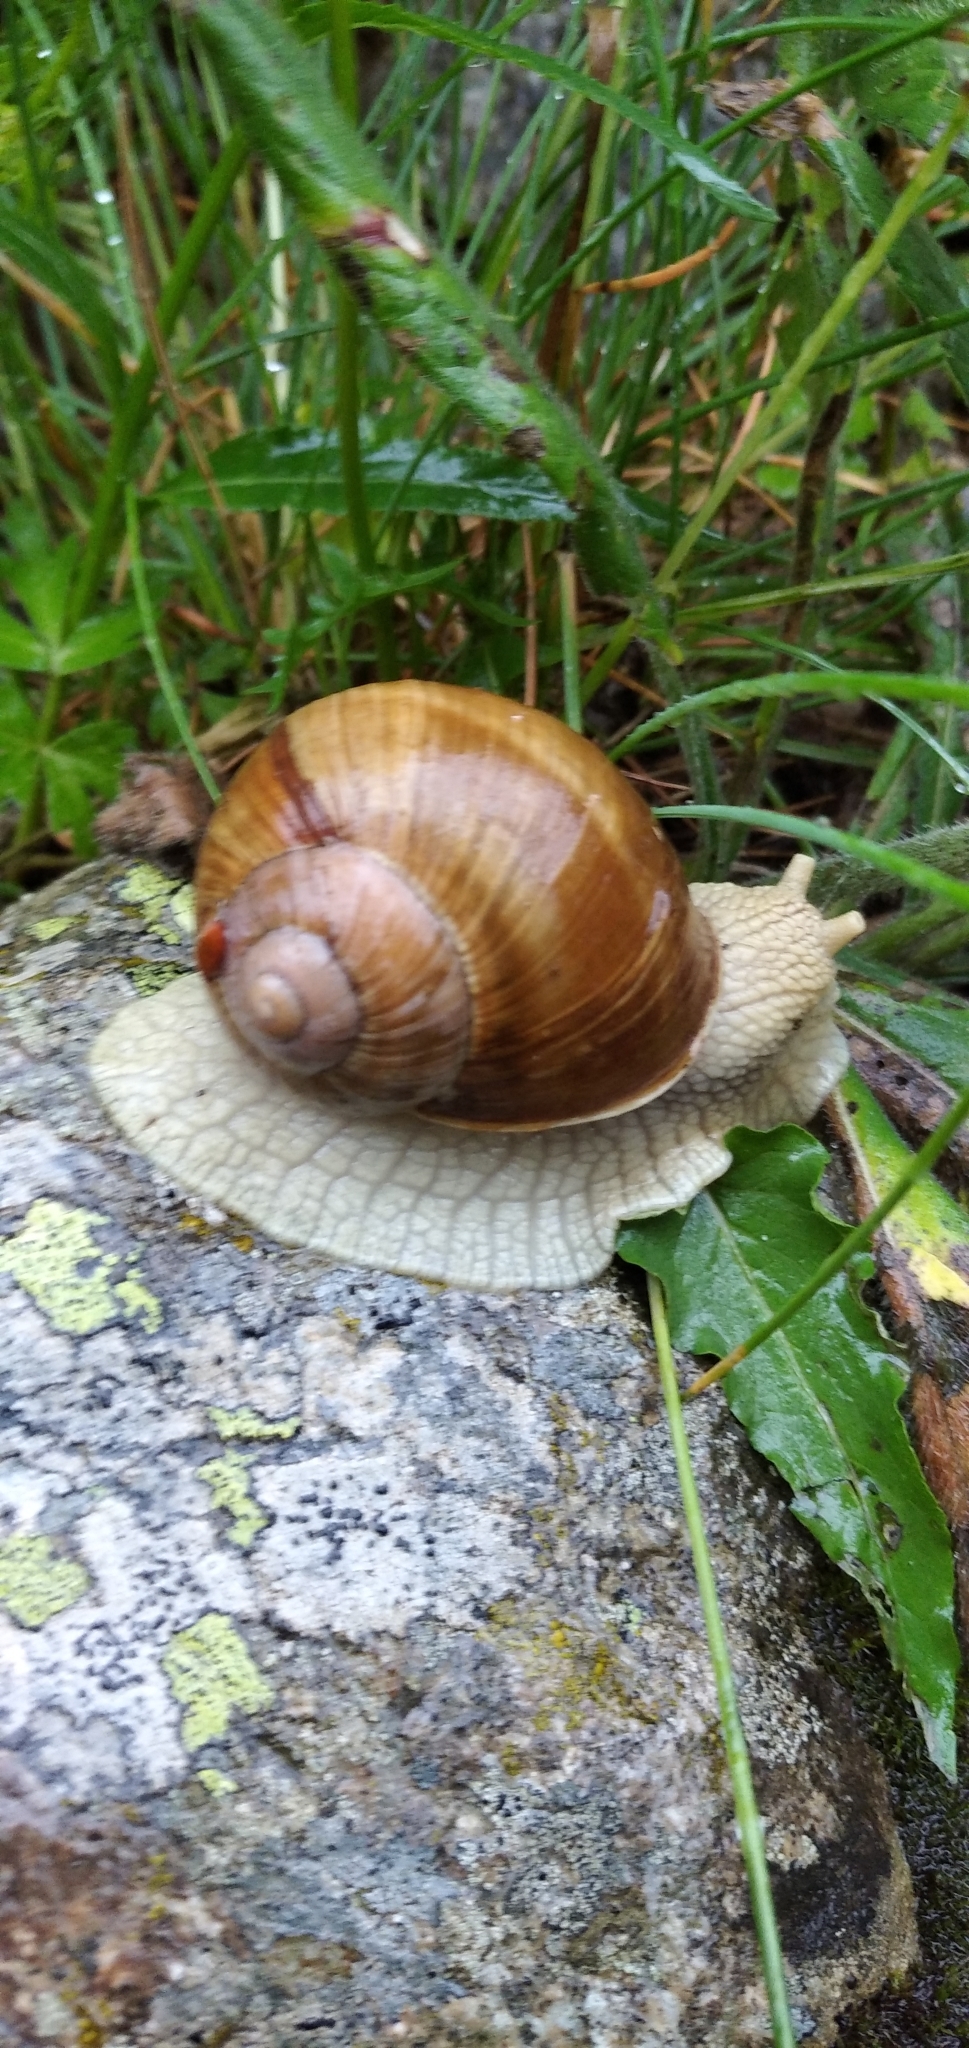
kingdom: Animalia
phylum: Mollusca
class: Gastropoda
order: Stylommatophora
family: Helicidae
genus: Helix
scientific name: Helix pomatia
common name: Roman snail
